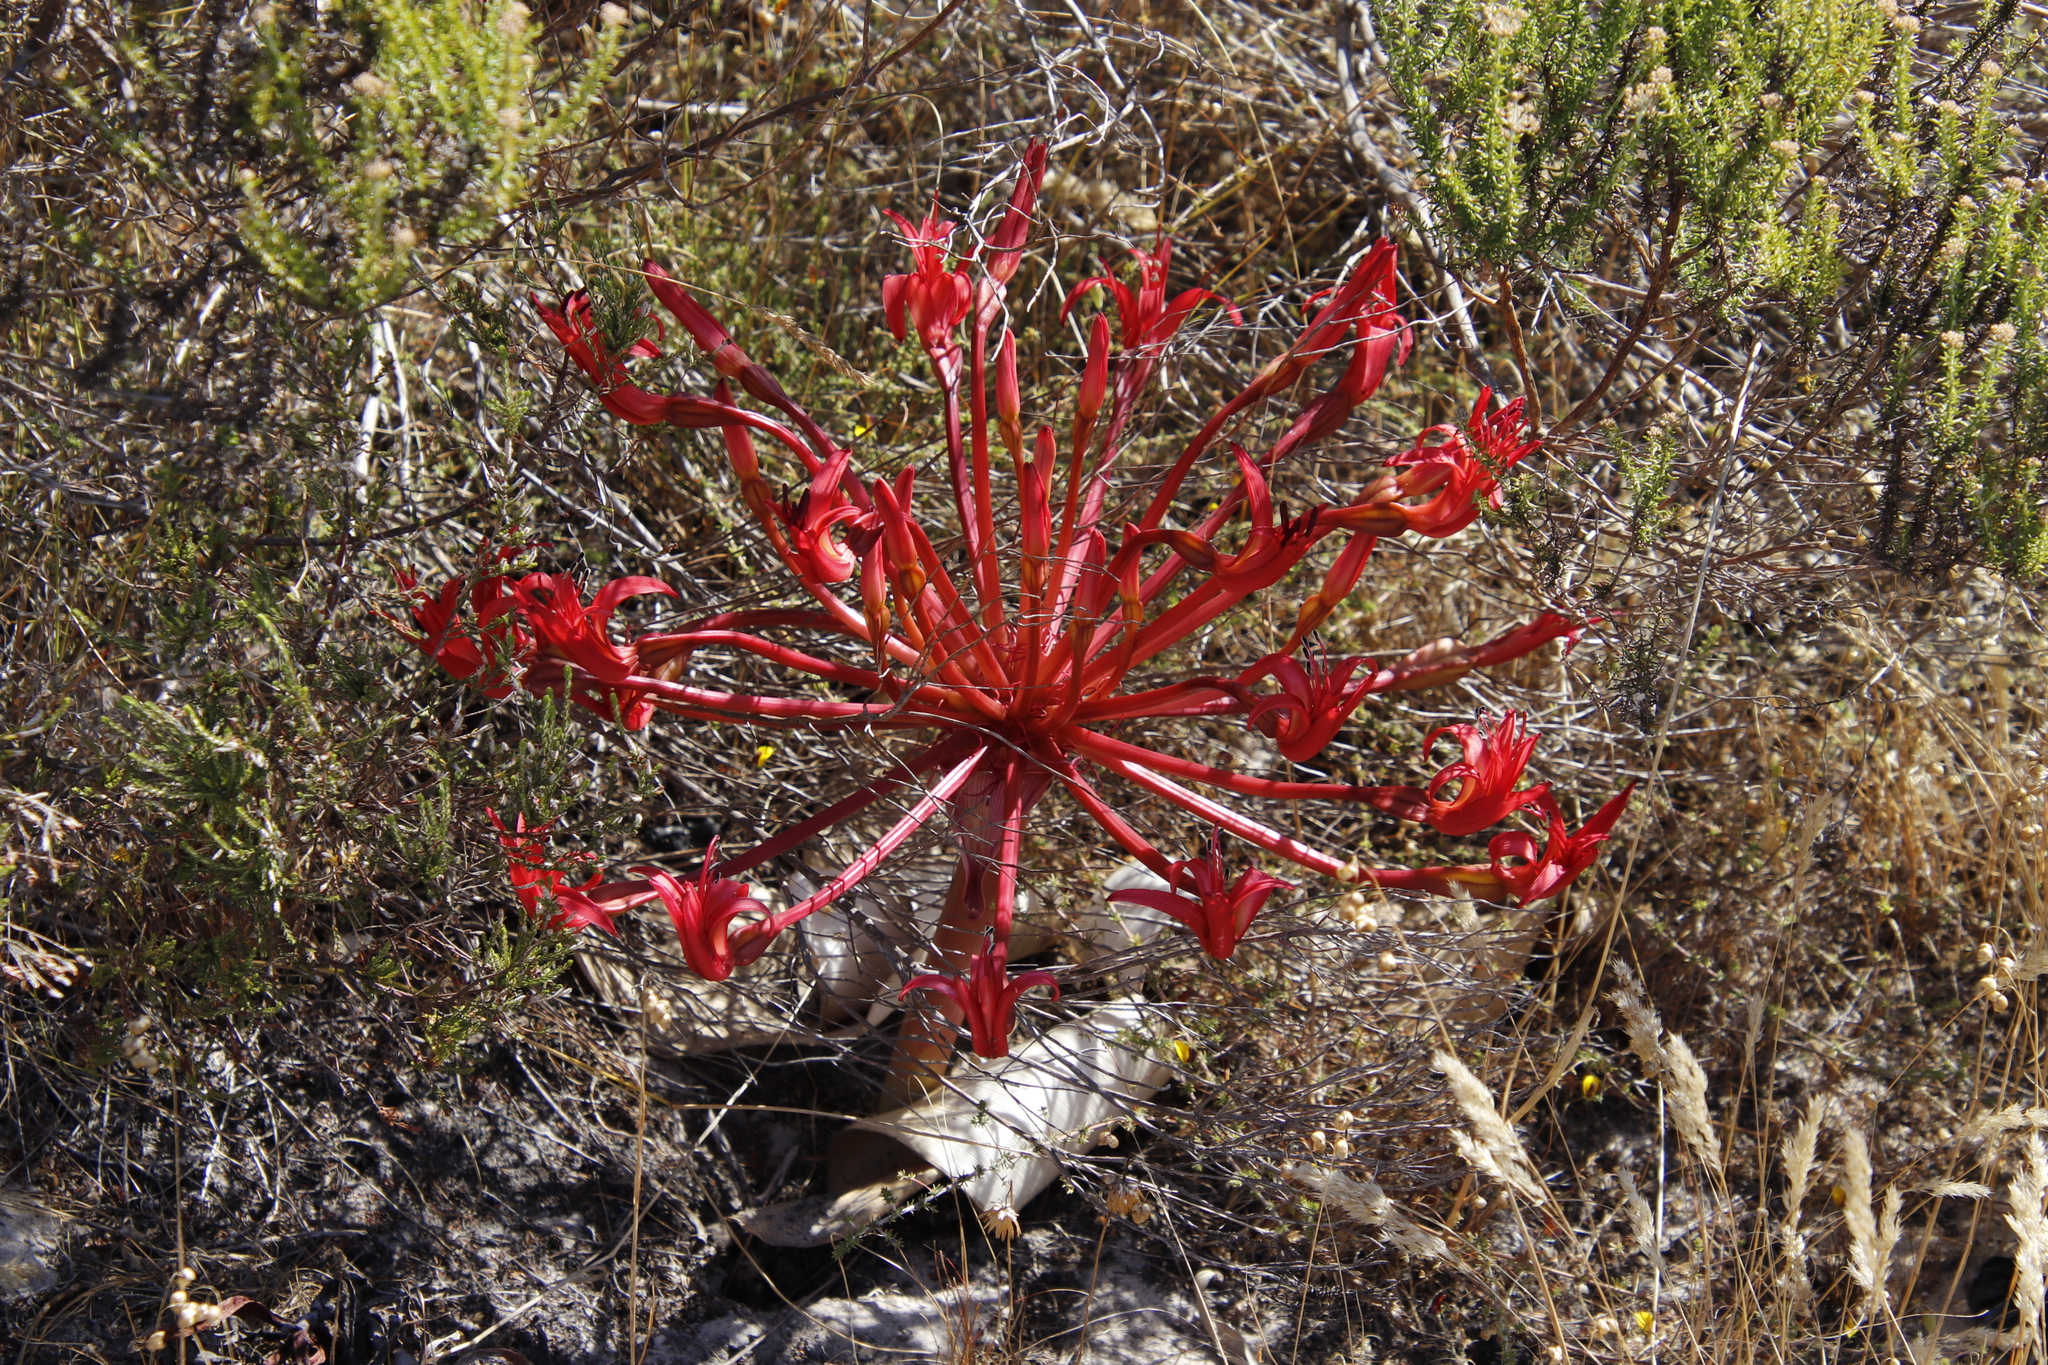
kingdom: Plantae
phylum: Tracheophyta
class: Liliopsida
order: Asparagales
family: Amaryllidaceae
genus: Brunsvigia
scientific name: Brunsvigia orientalis
